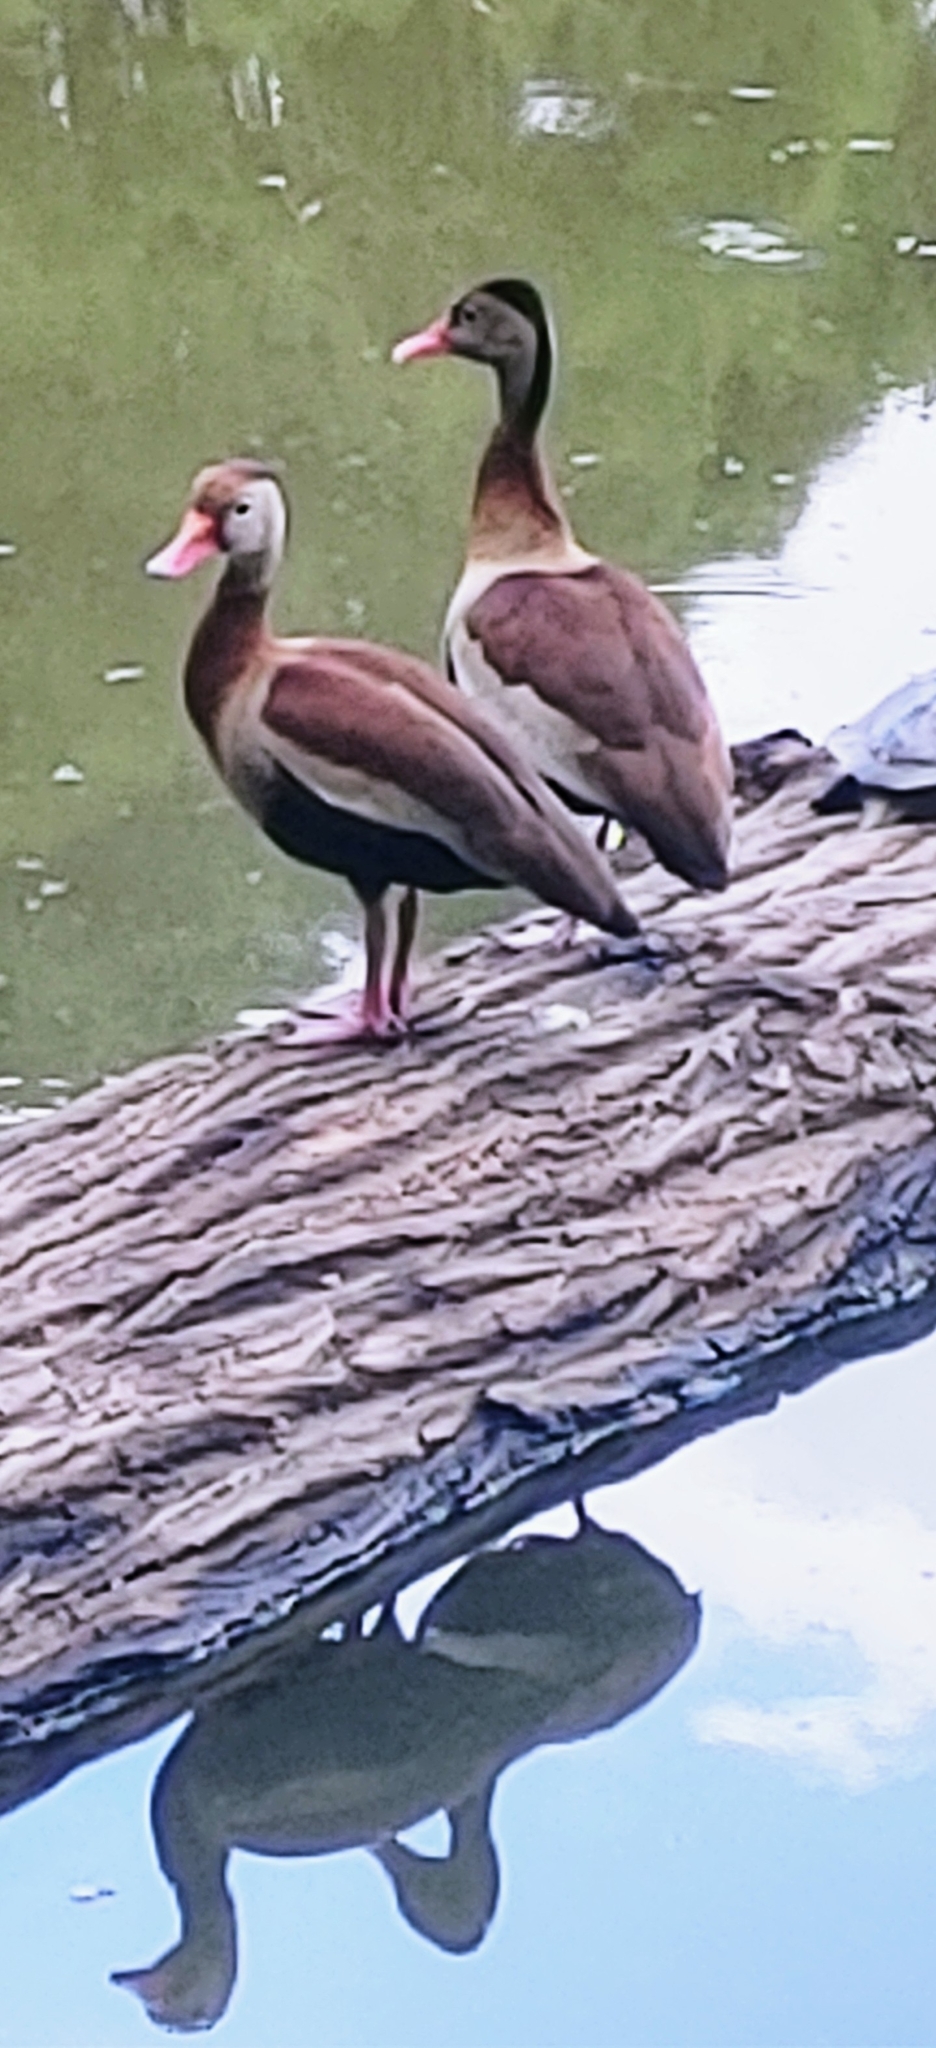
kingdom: Animalia
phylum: Chordata
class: Aves
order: Anseriformes
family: Anatidae
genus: Dendrocygna
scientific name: Dendrocygna autumnalis
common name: Black-bellied whistling duck
